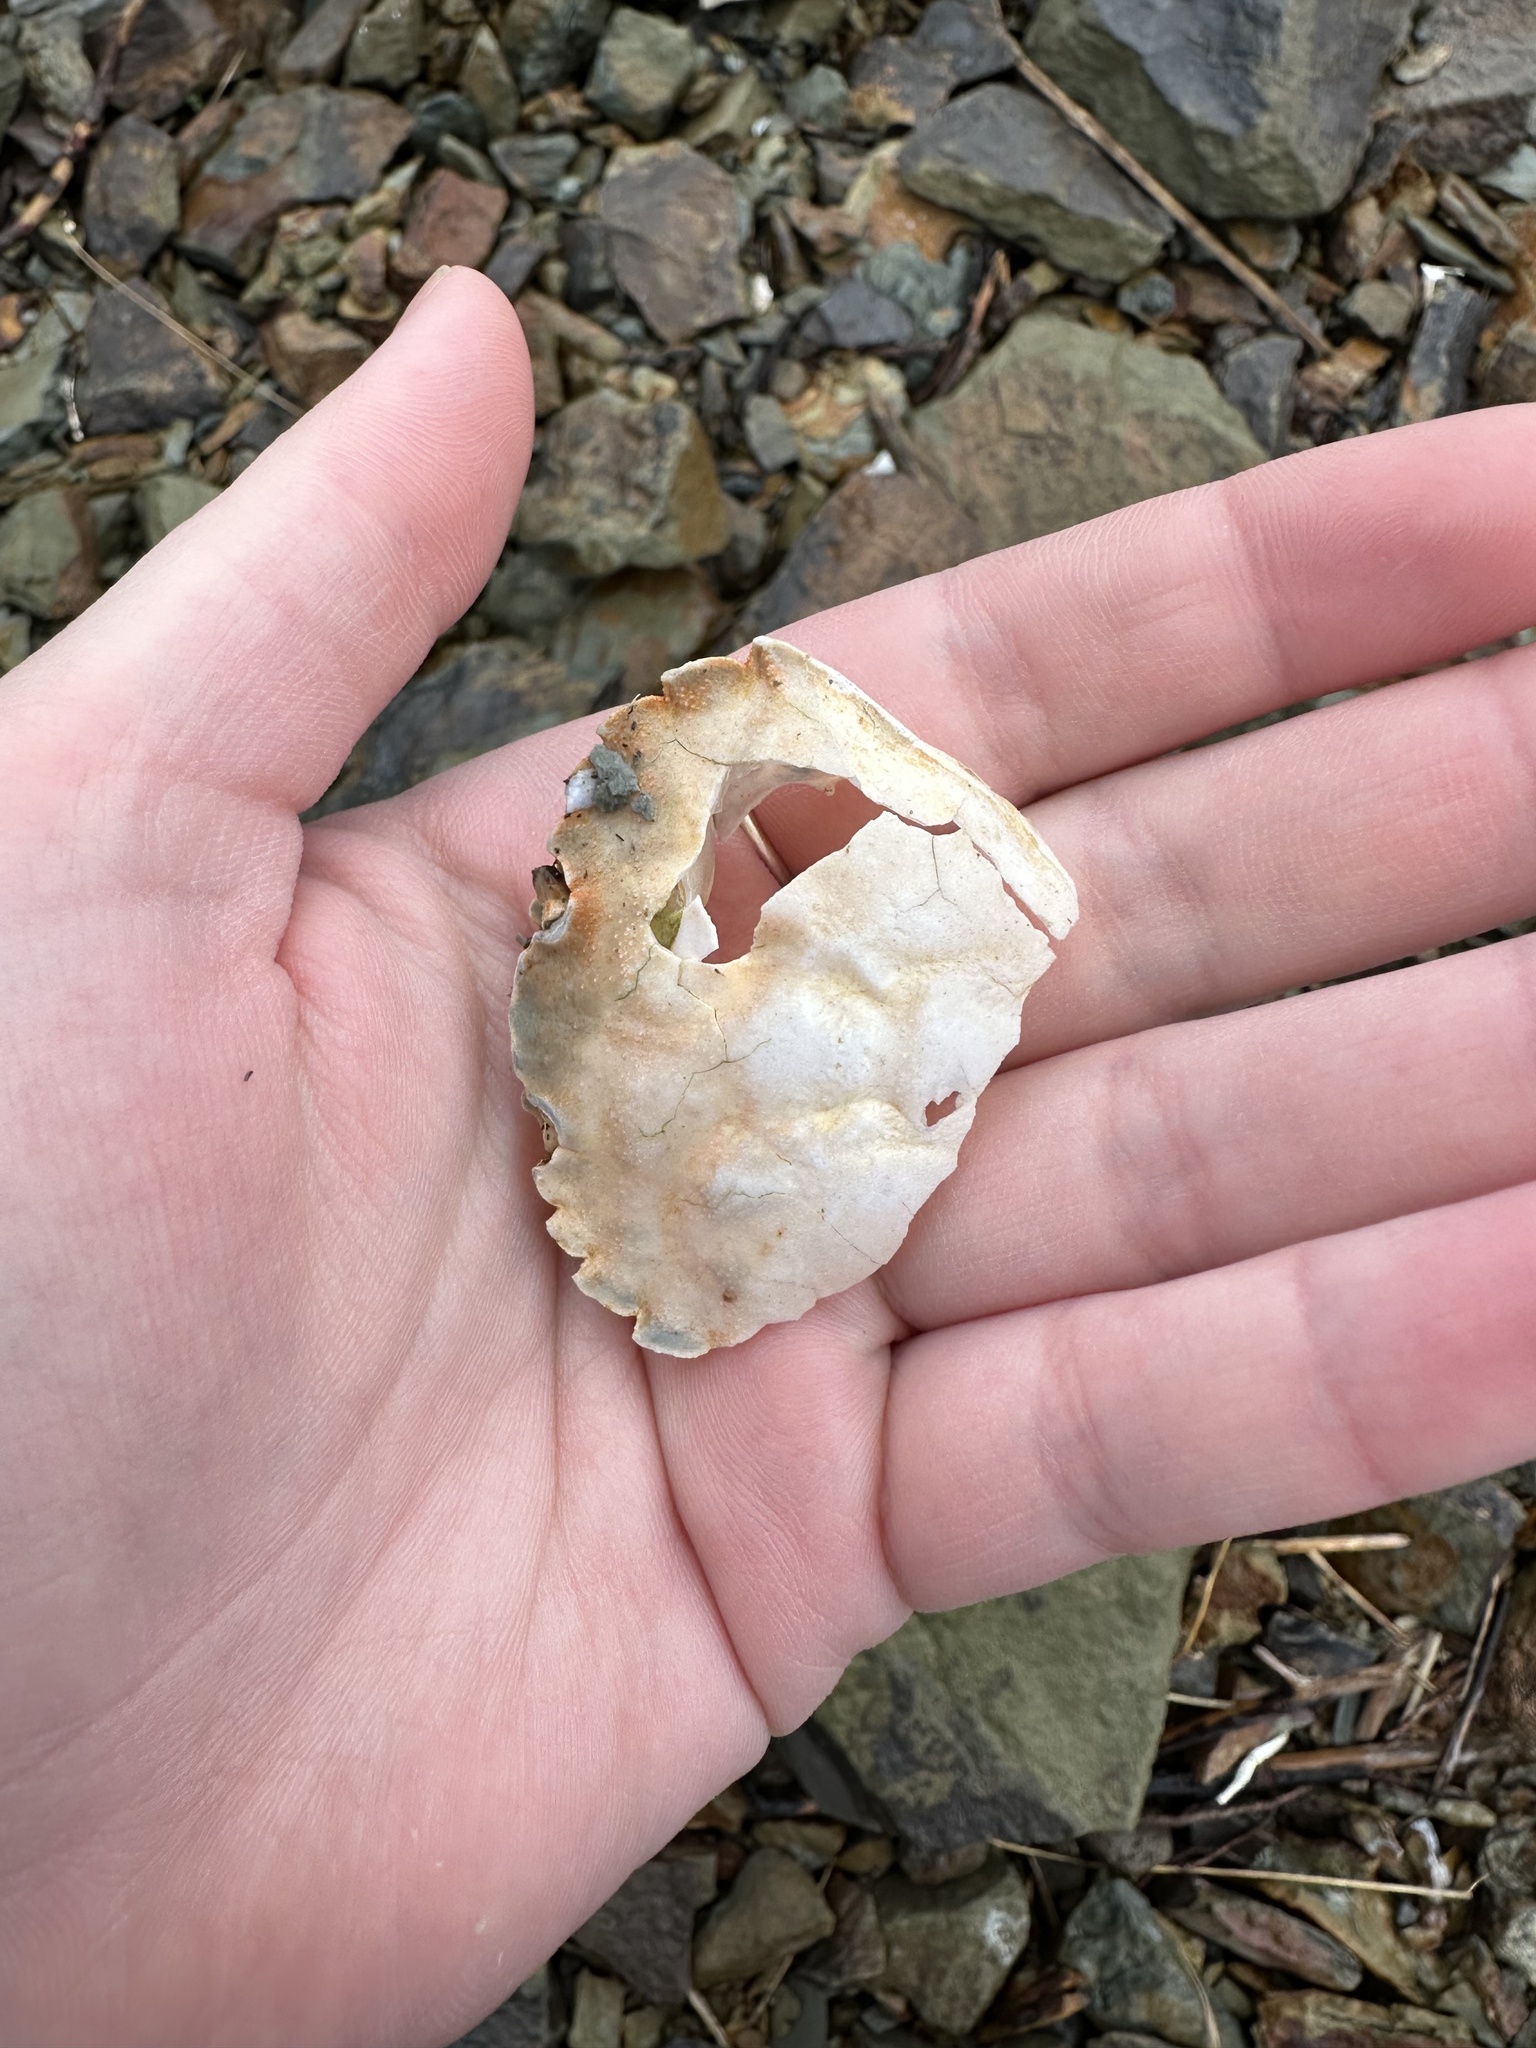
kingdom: Animalia
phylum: Arthropoda
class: Malacostraca
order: Decapoda
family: Carcinidae
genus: Carcinus
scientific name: Carcinus maenas
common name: European green crab
